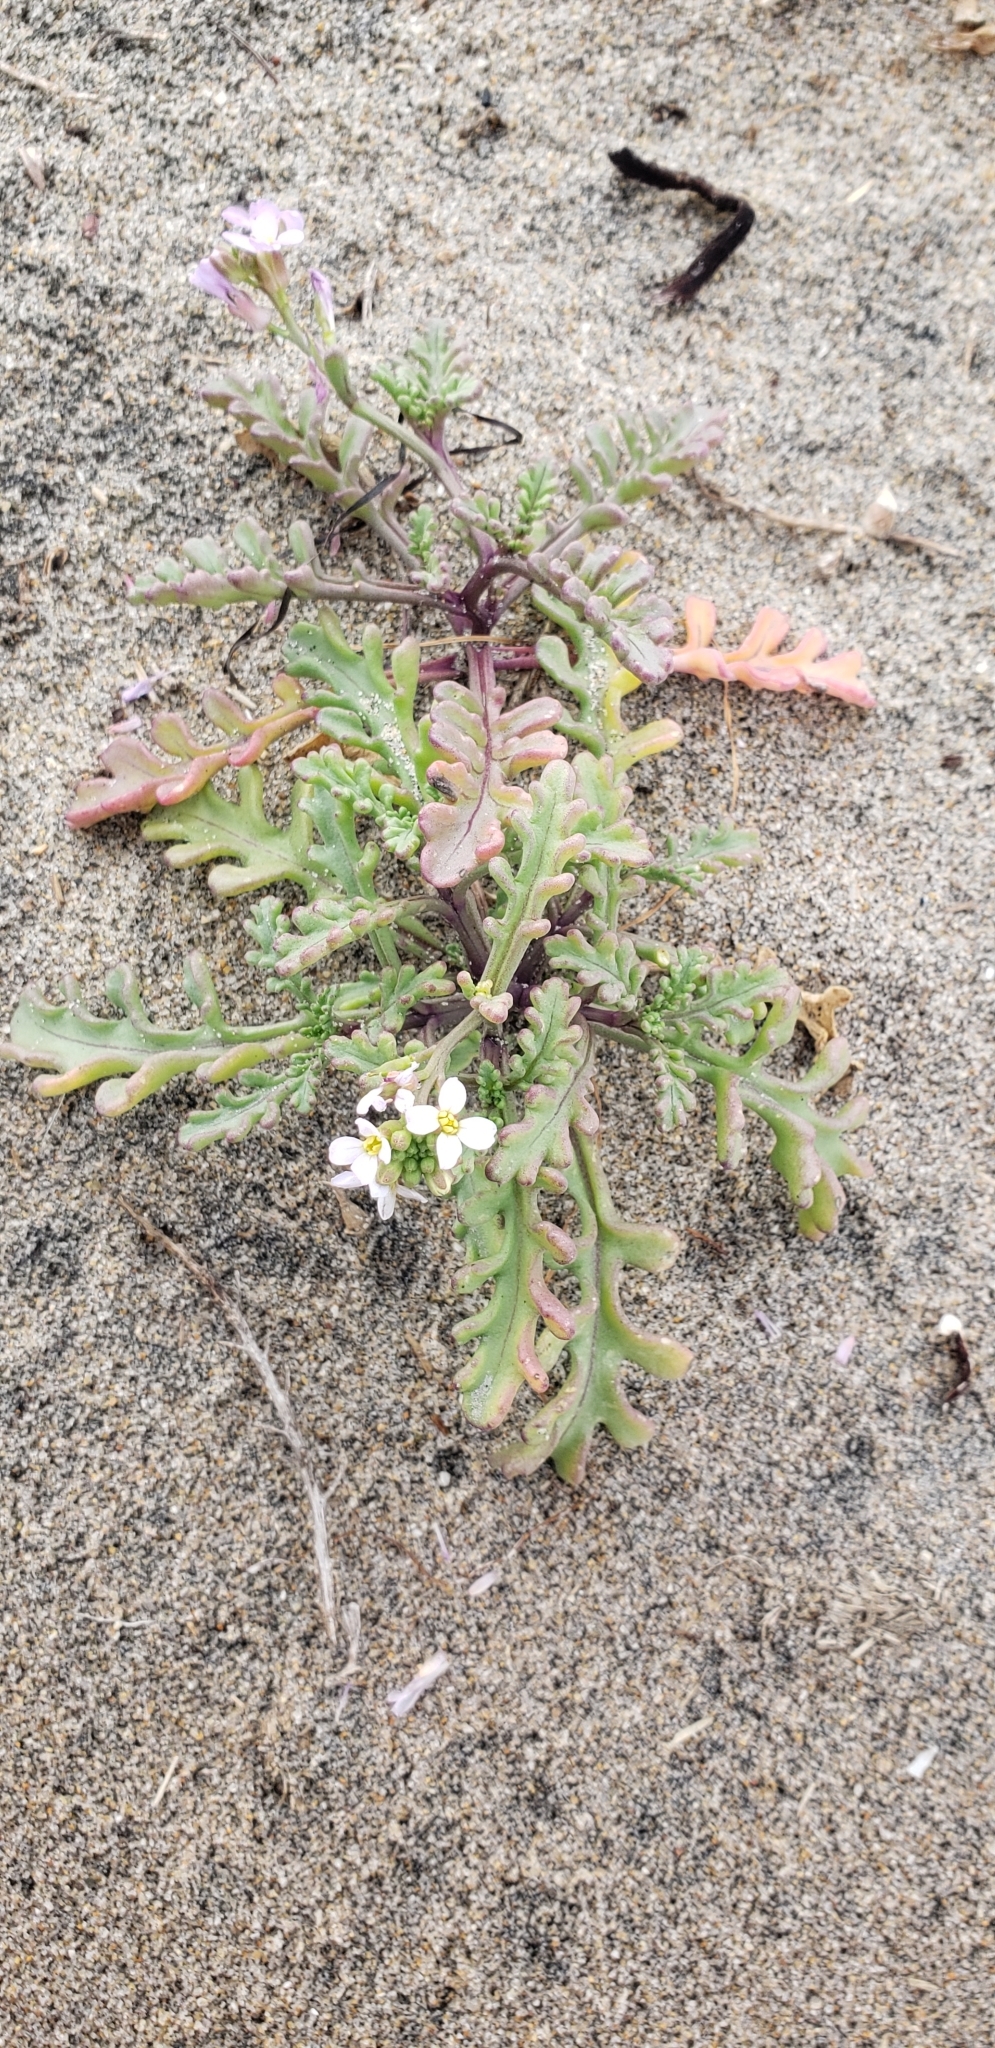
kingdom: Plantae
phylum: Tracheophyta
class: Magnoliopsida
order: Brassicales
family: Brassicaceae
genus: Cakile
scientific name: Cakile maritima
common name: Sea rocket
